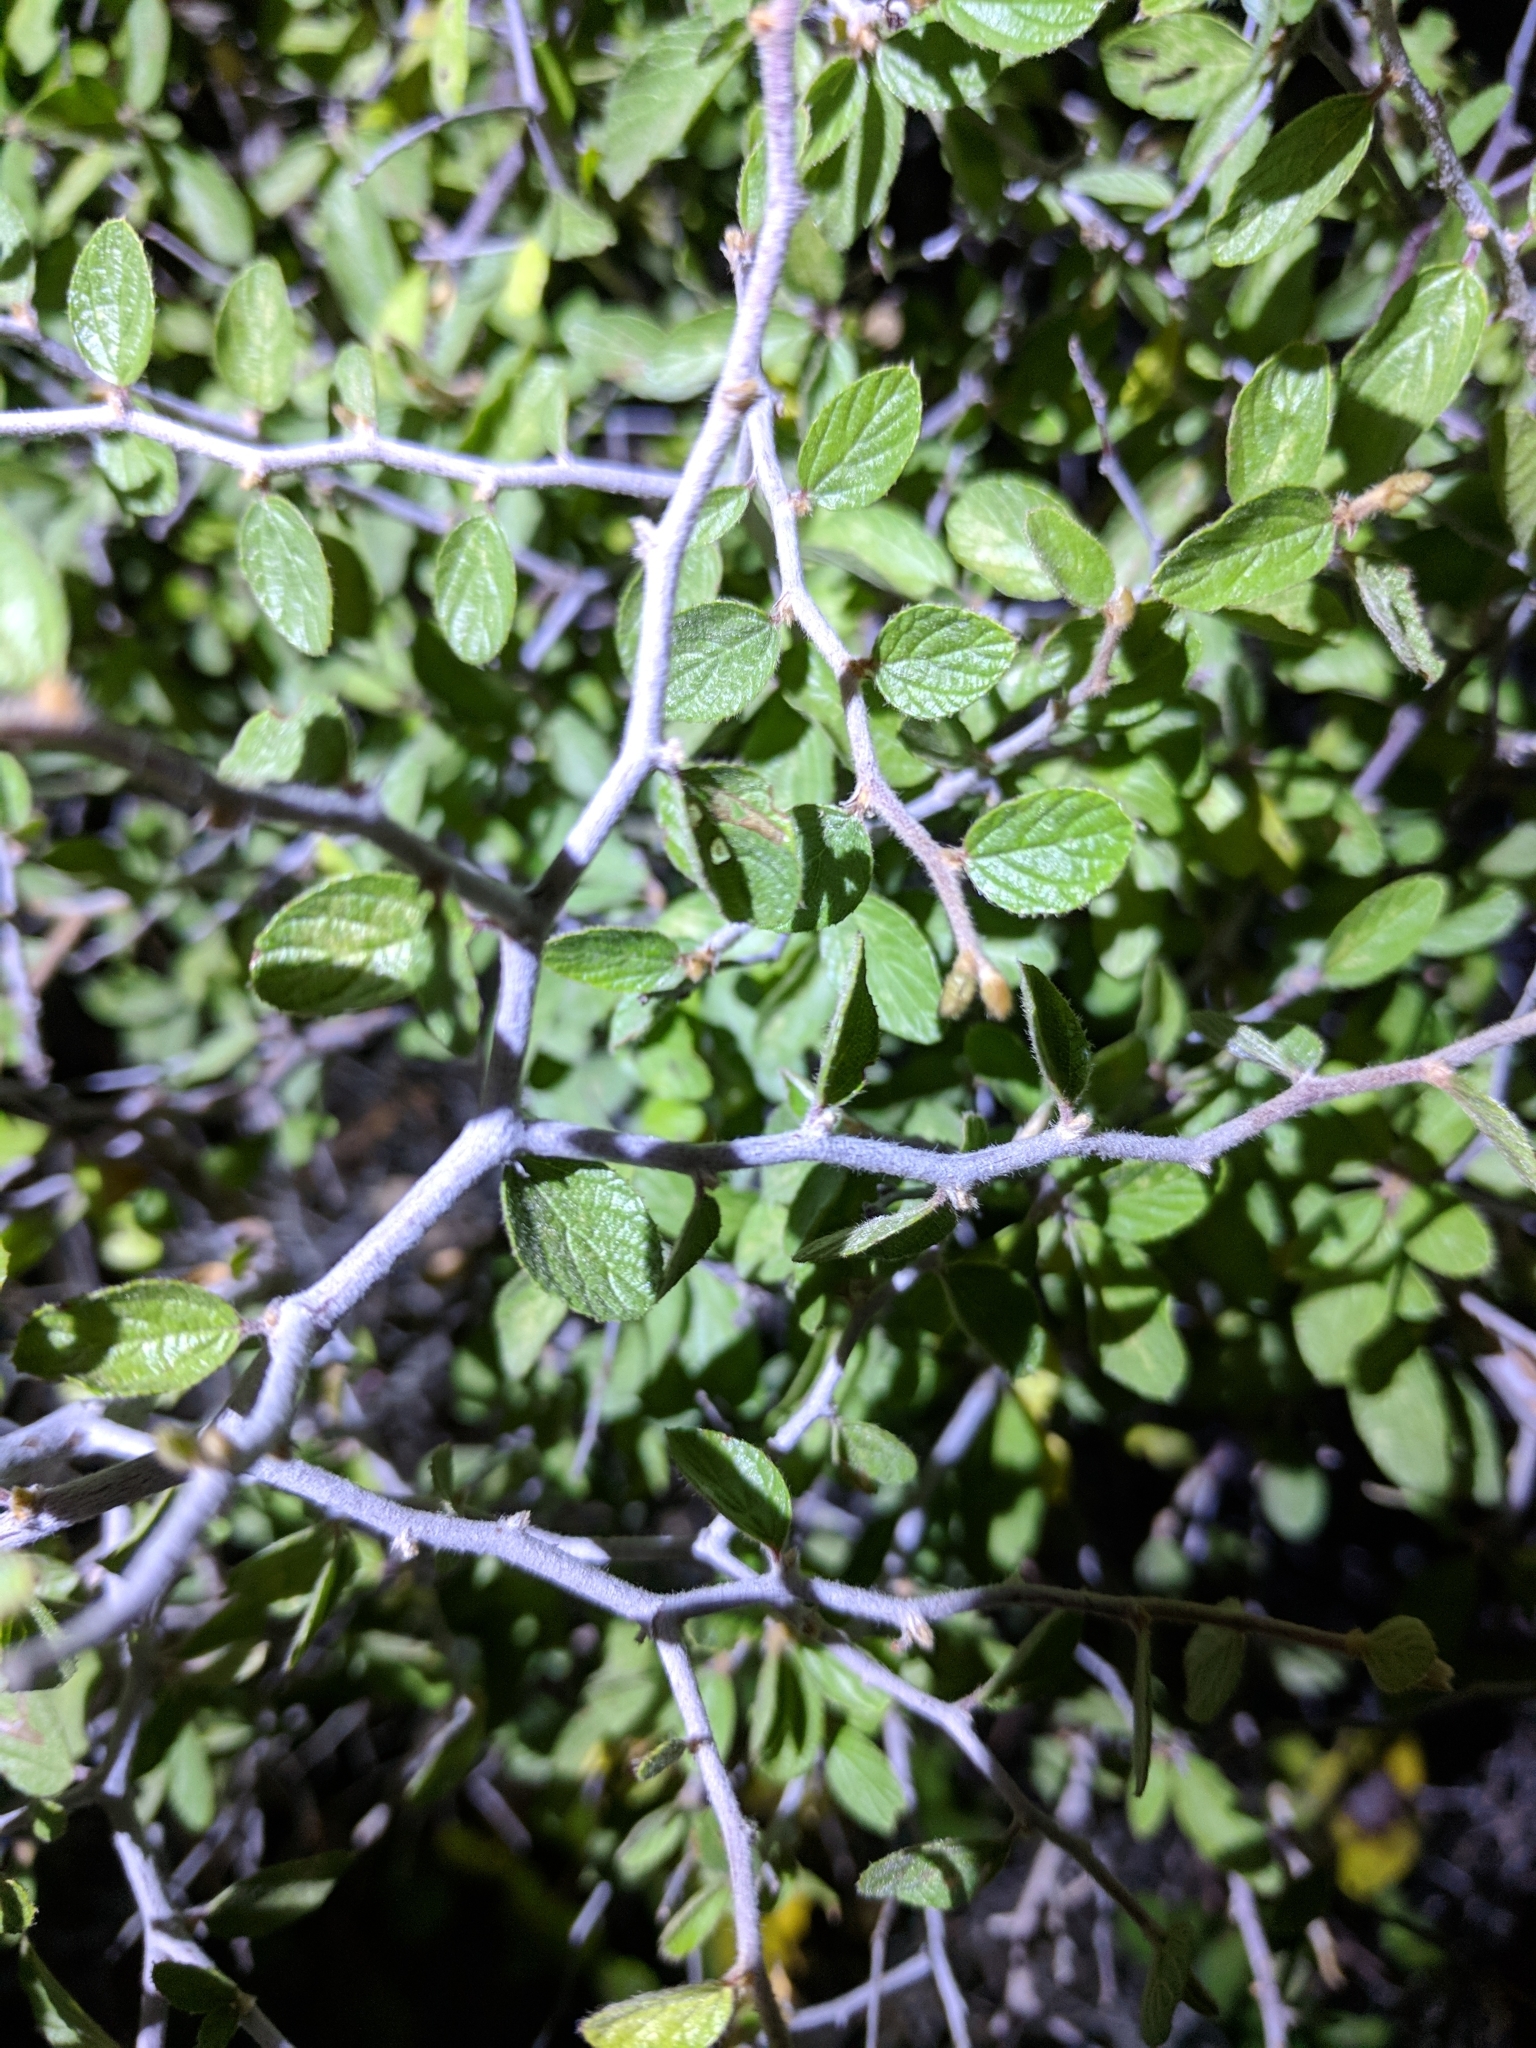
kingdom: Plantae
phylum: Tracheophyta
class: Magnoliopsida
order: Rosales
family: Rhamnaceae
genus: Colubrina
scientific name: Colubrina texensis
